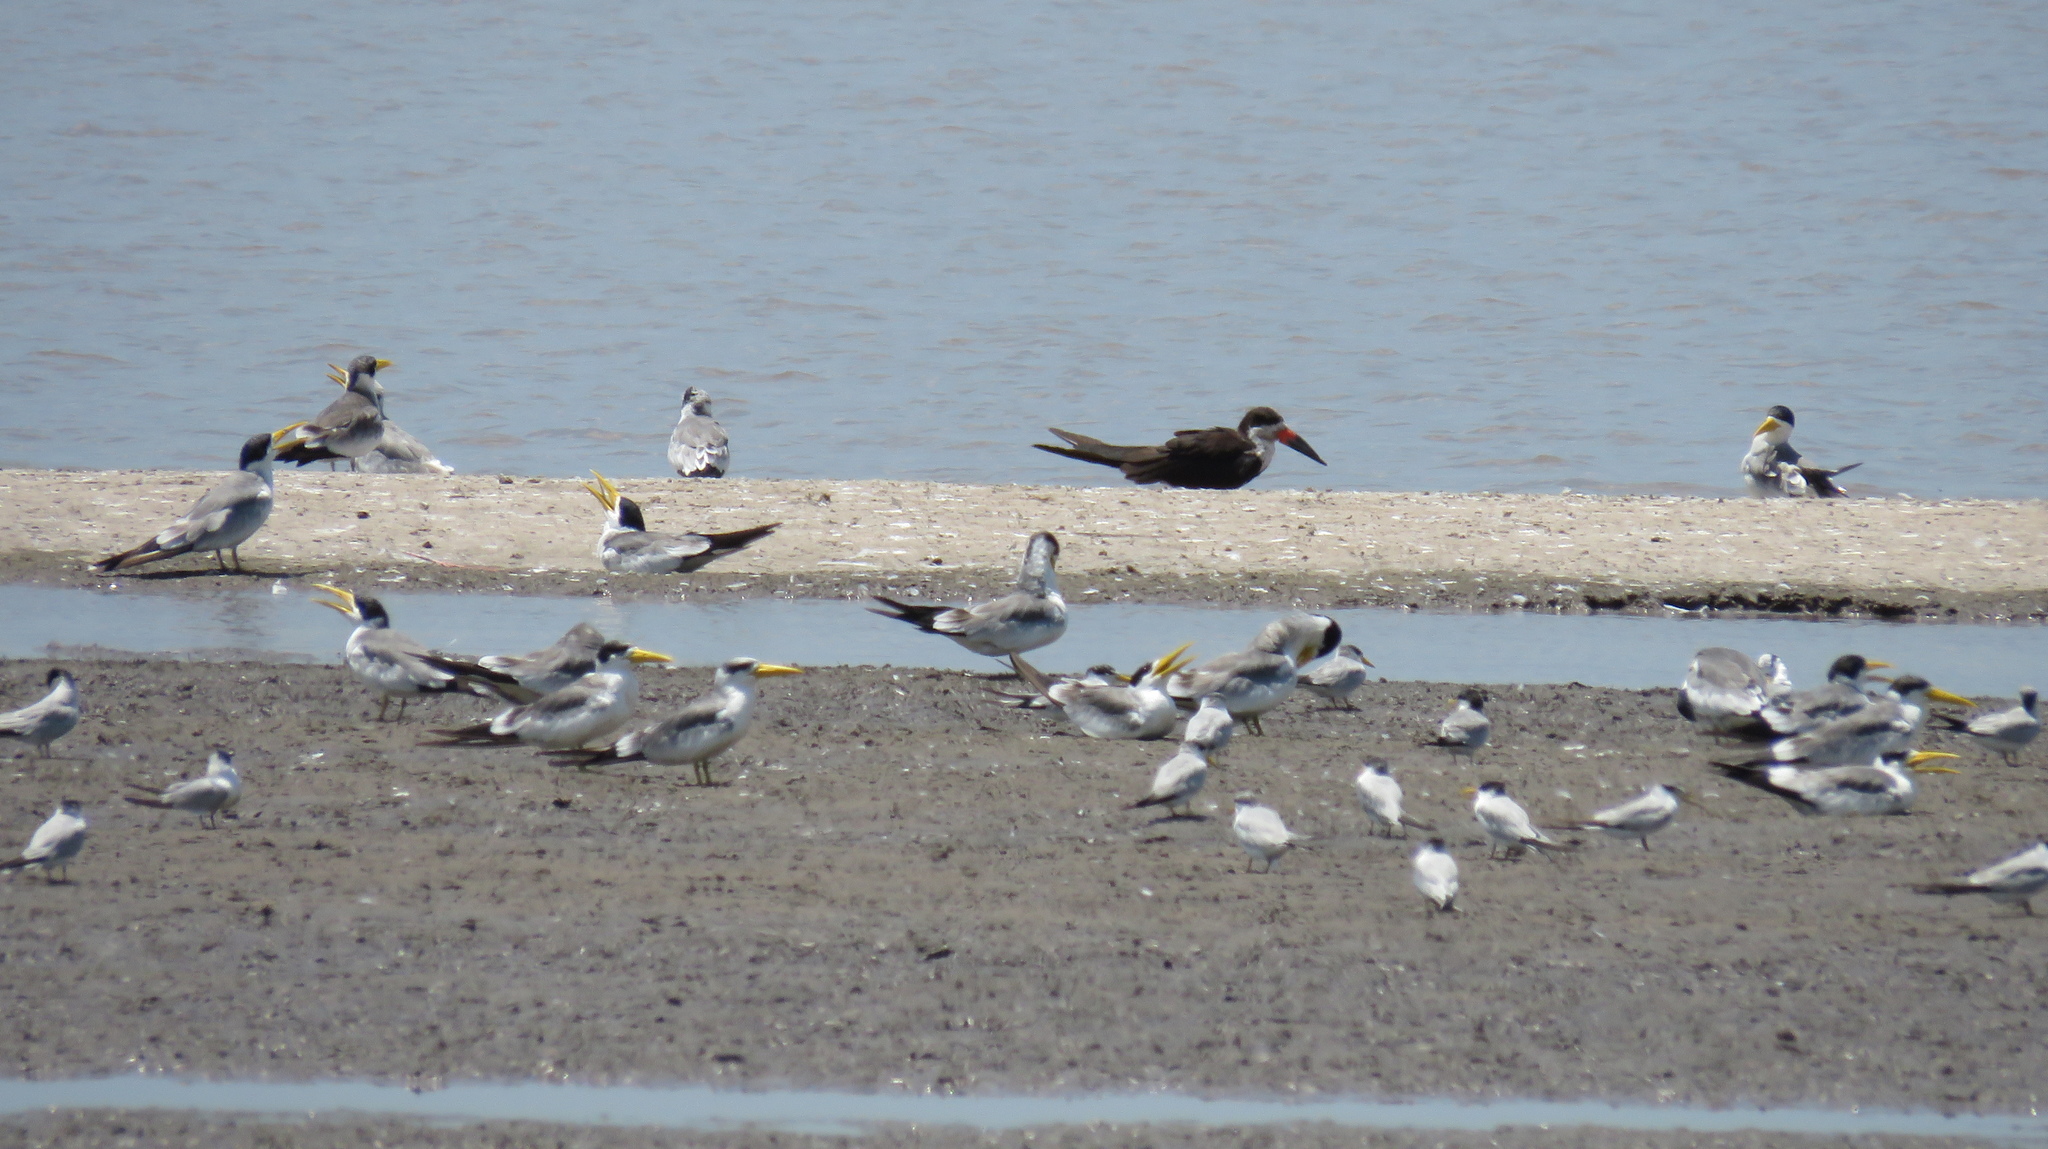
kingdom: Animalia
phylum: Chordata
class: Aves
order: Charadriiformes
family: Laridae
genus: Phaetusa
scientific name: Phaetusa simplex
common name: Large-billed tern
